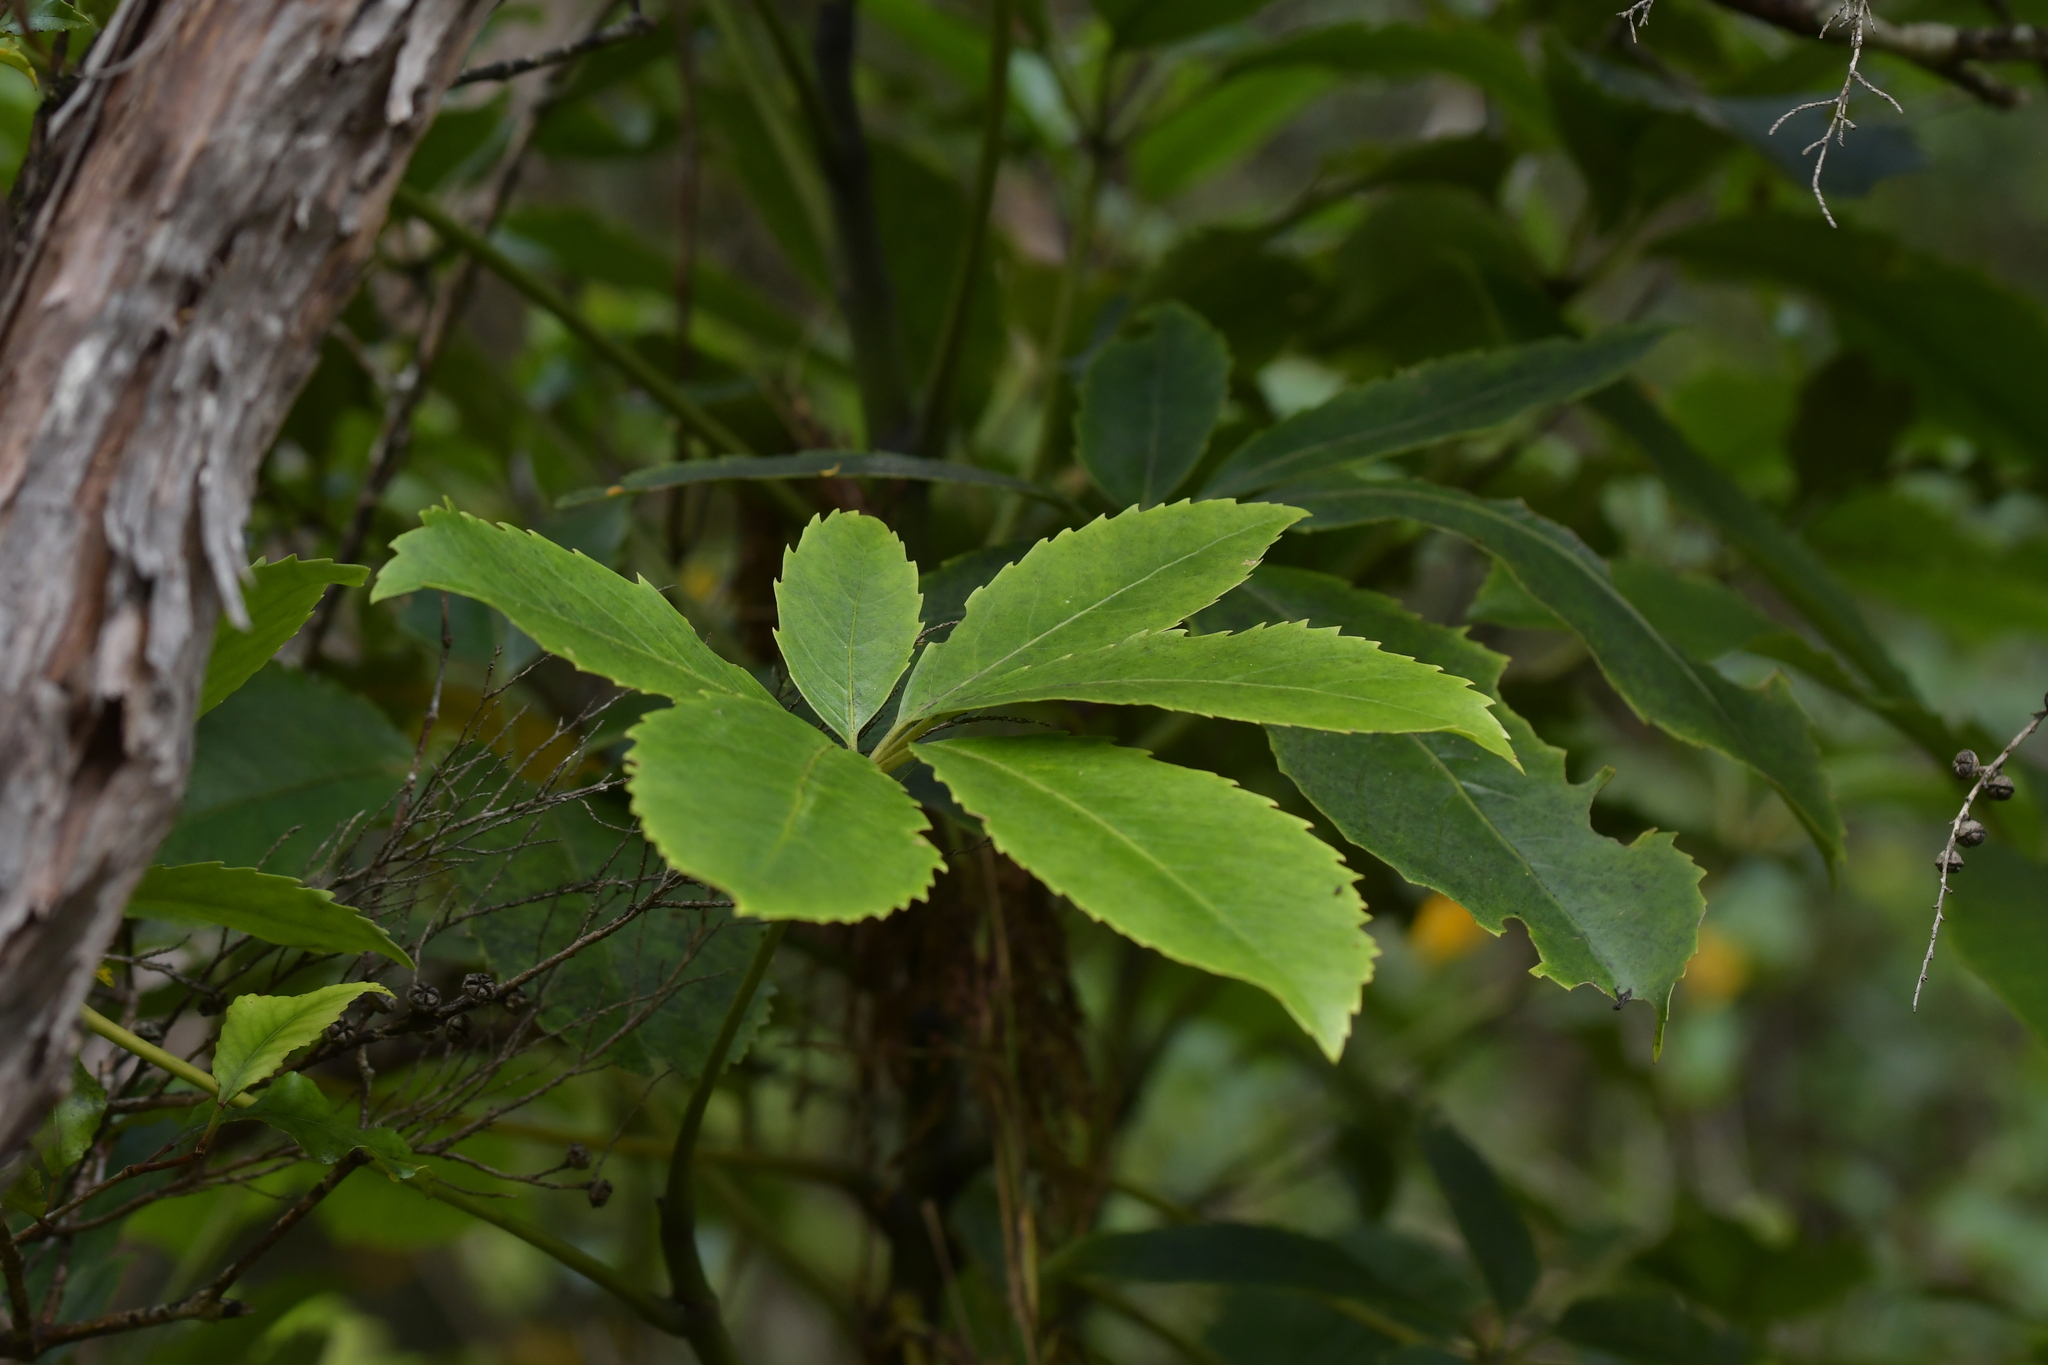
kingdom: Plantae
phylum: Tracheophyta
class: Magnoliopsida
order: Apiales
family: Araliaceae
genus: Neopanax
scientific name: Neopanax arboreus
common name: Five-fingers
